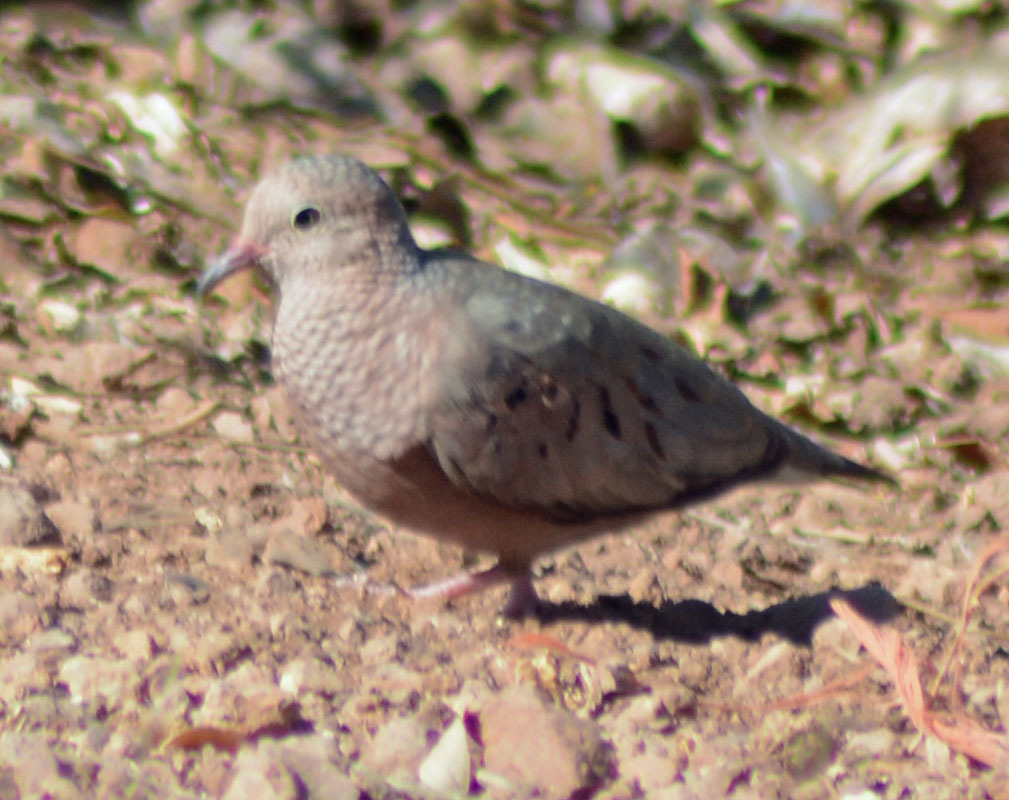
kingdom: Animalia
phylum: Chordata
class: Aves
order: Columbiformes
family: Columbidae
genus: Columbina
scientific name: Columbina passerina
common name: Common ground-dove
